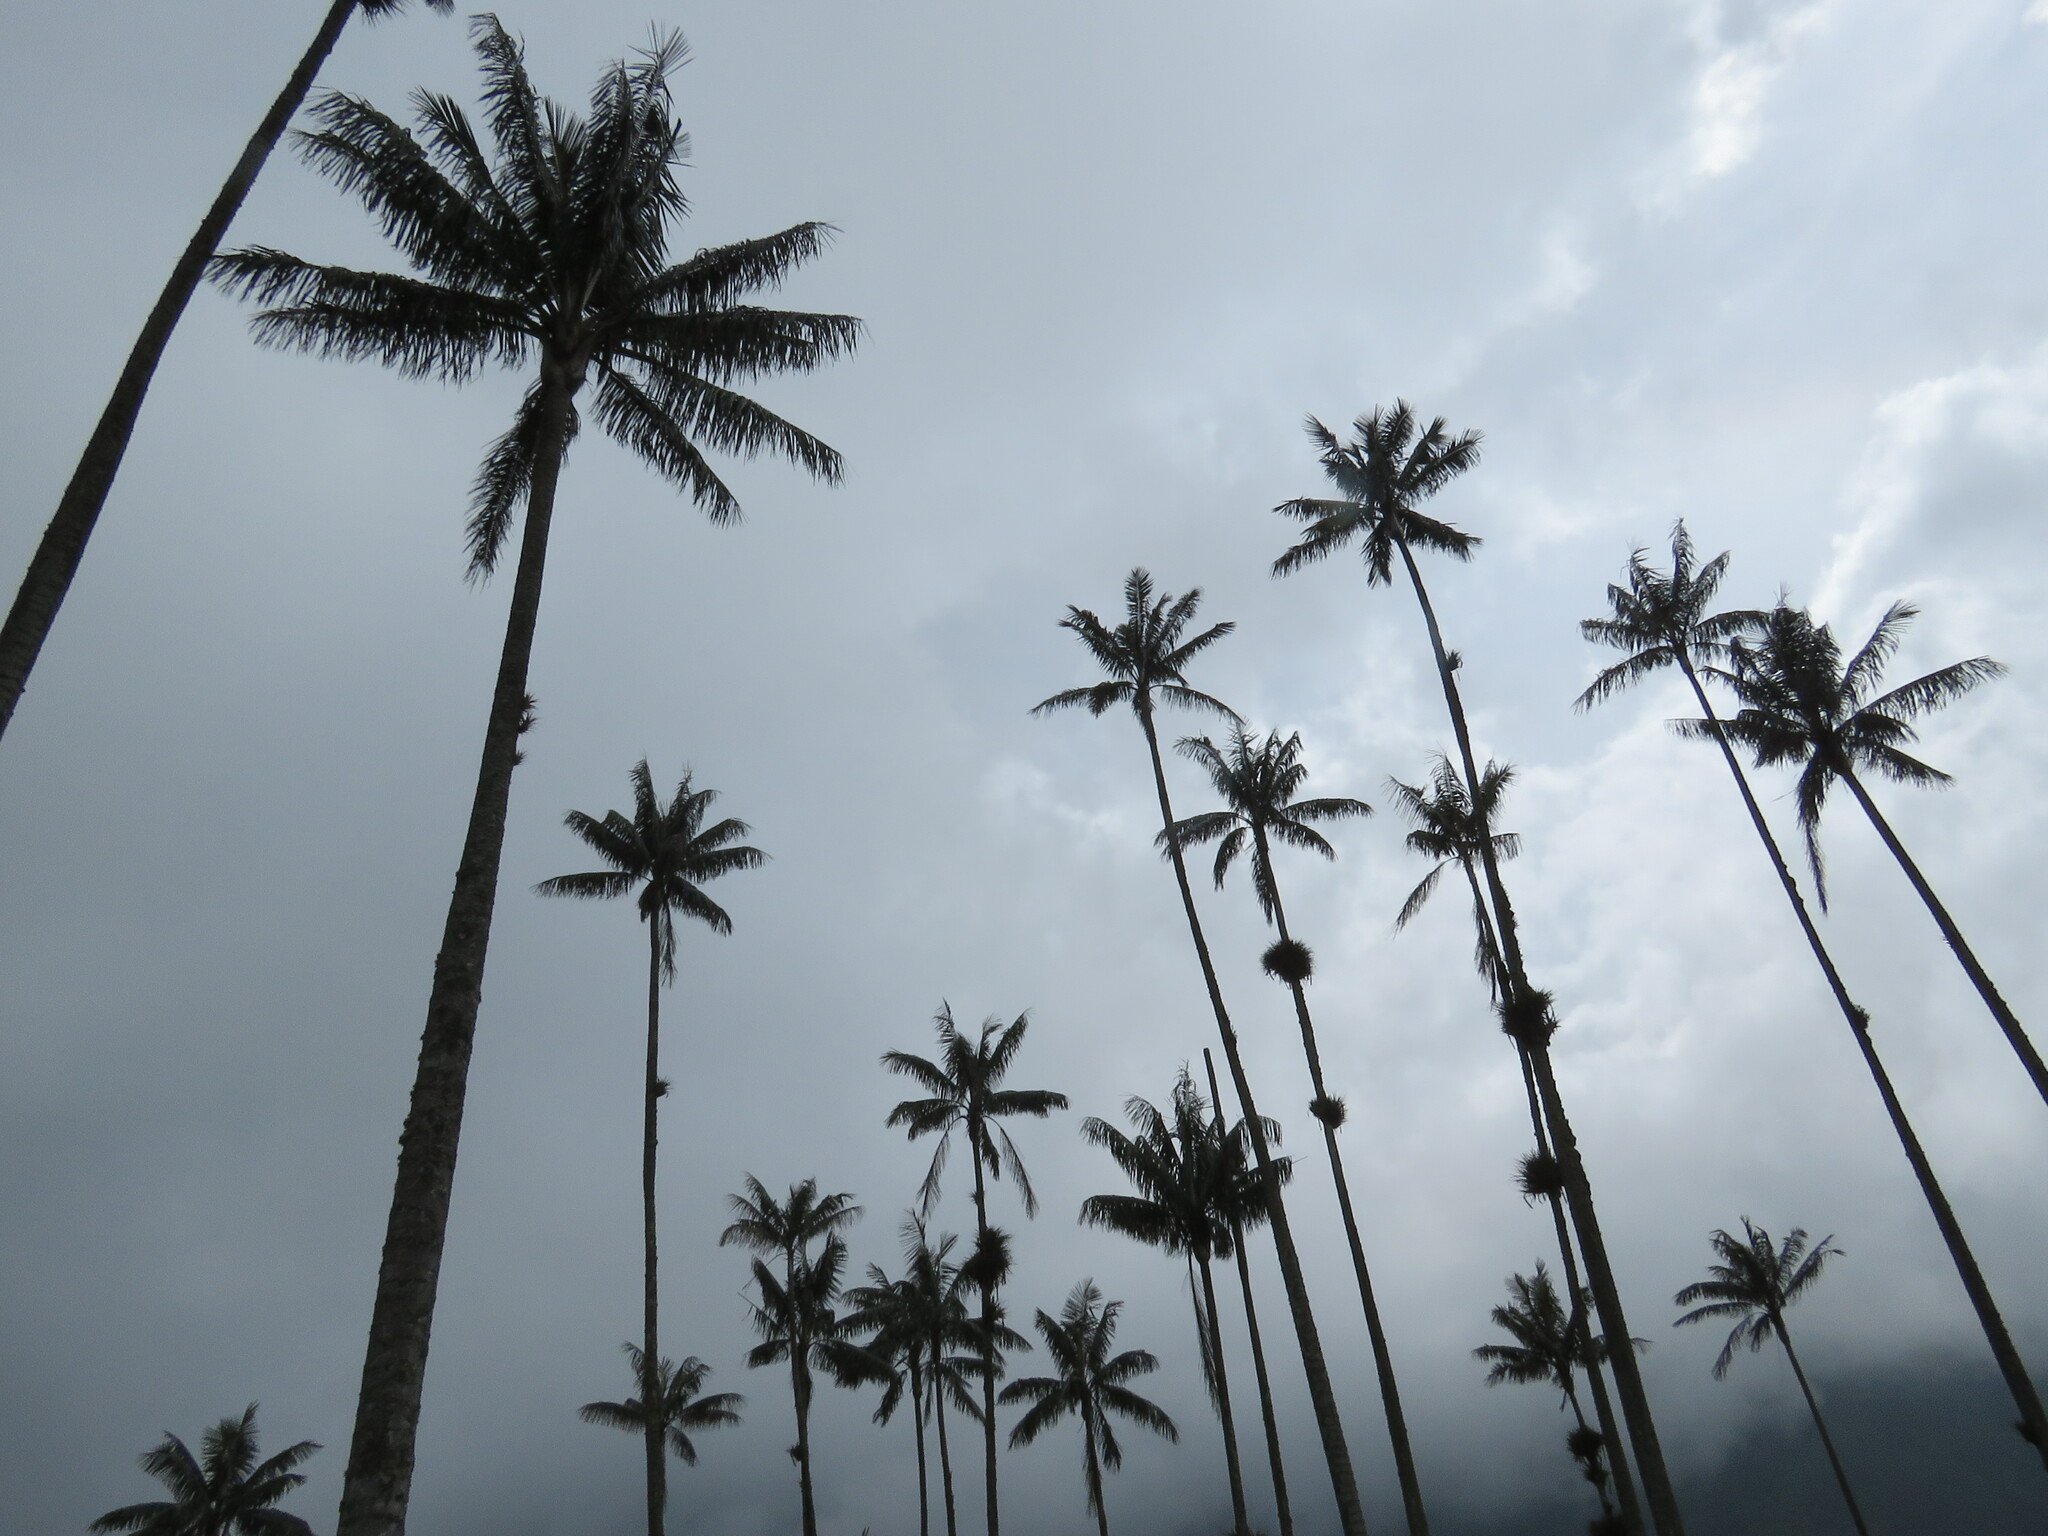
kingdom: Plantae
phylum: Tracheophyta
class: Liliopsida
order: Arecales
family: Arecaceae
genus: Ceroxylon
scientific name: Ceroxylon quindiuense
